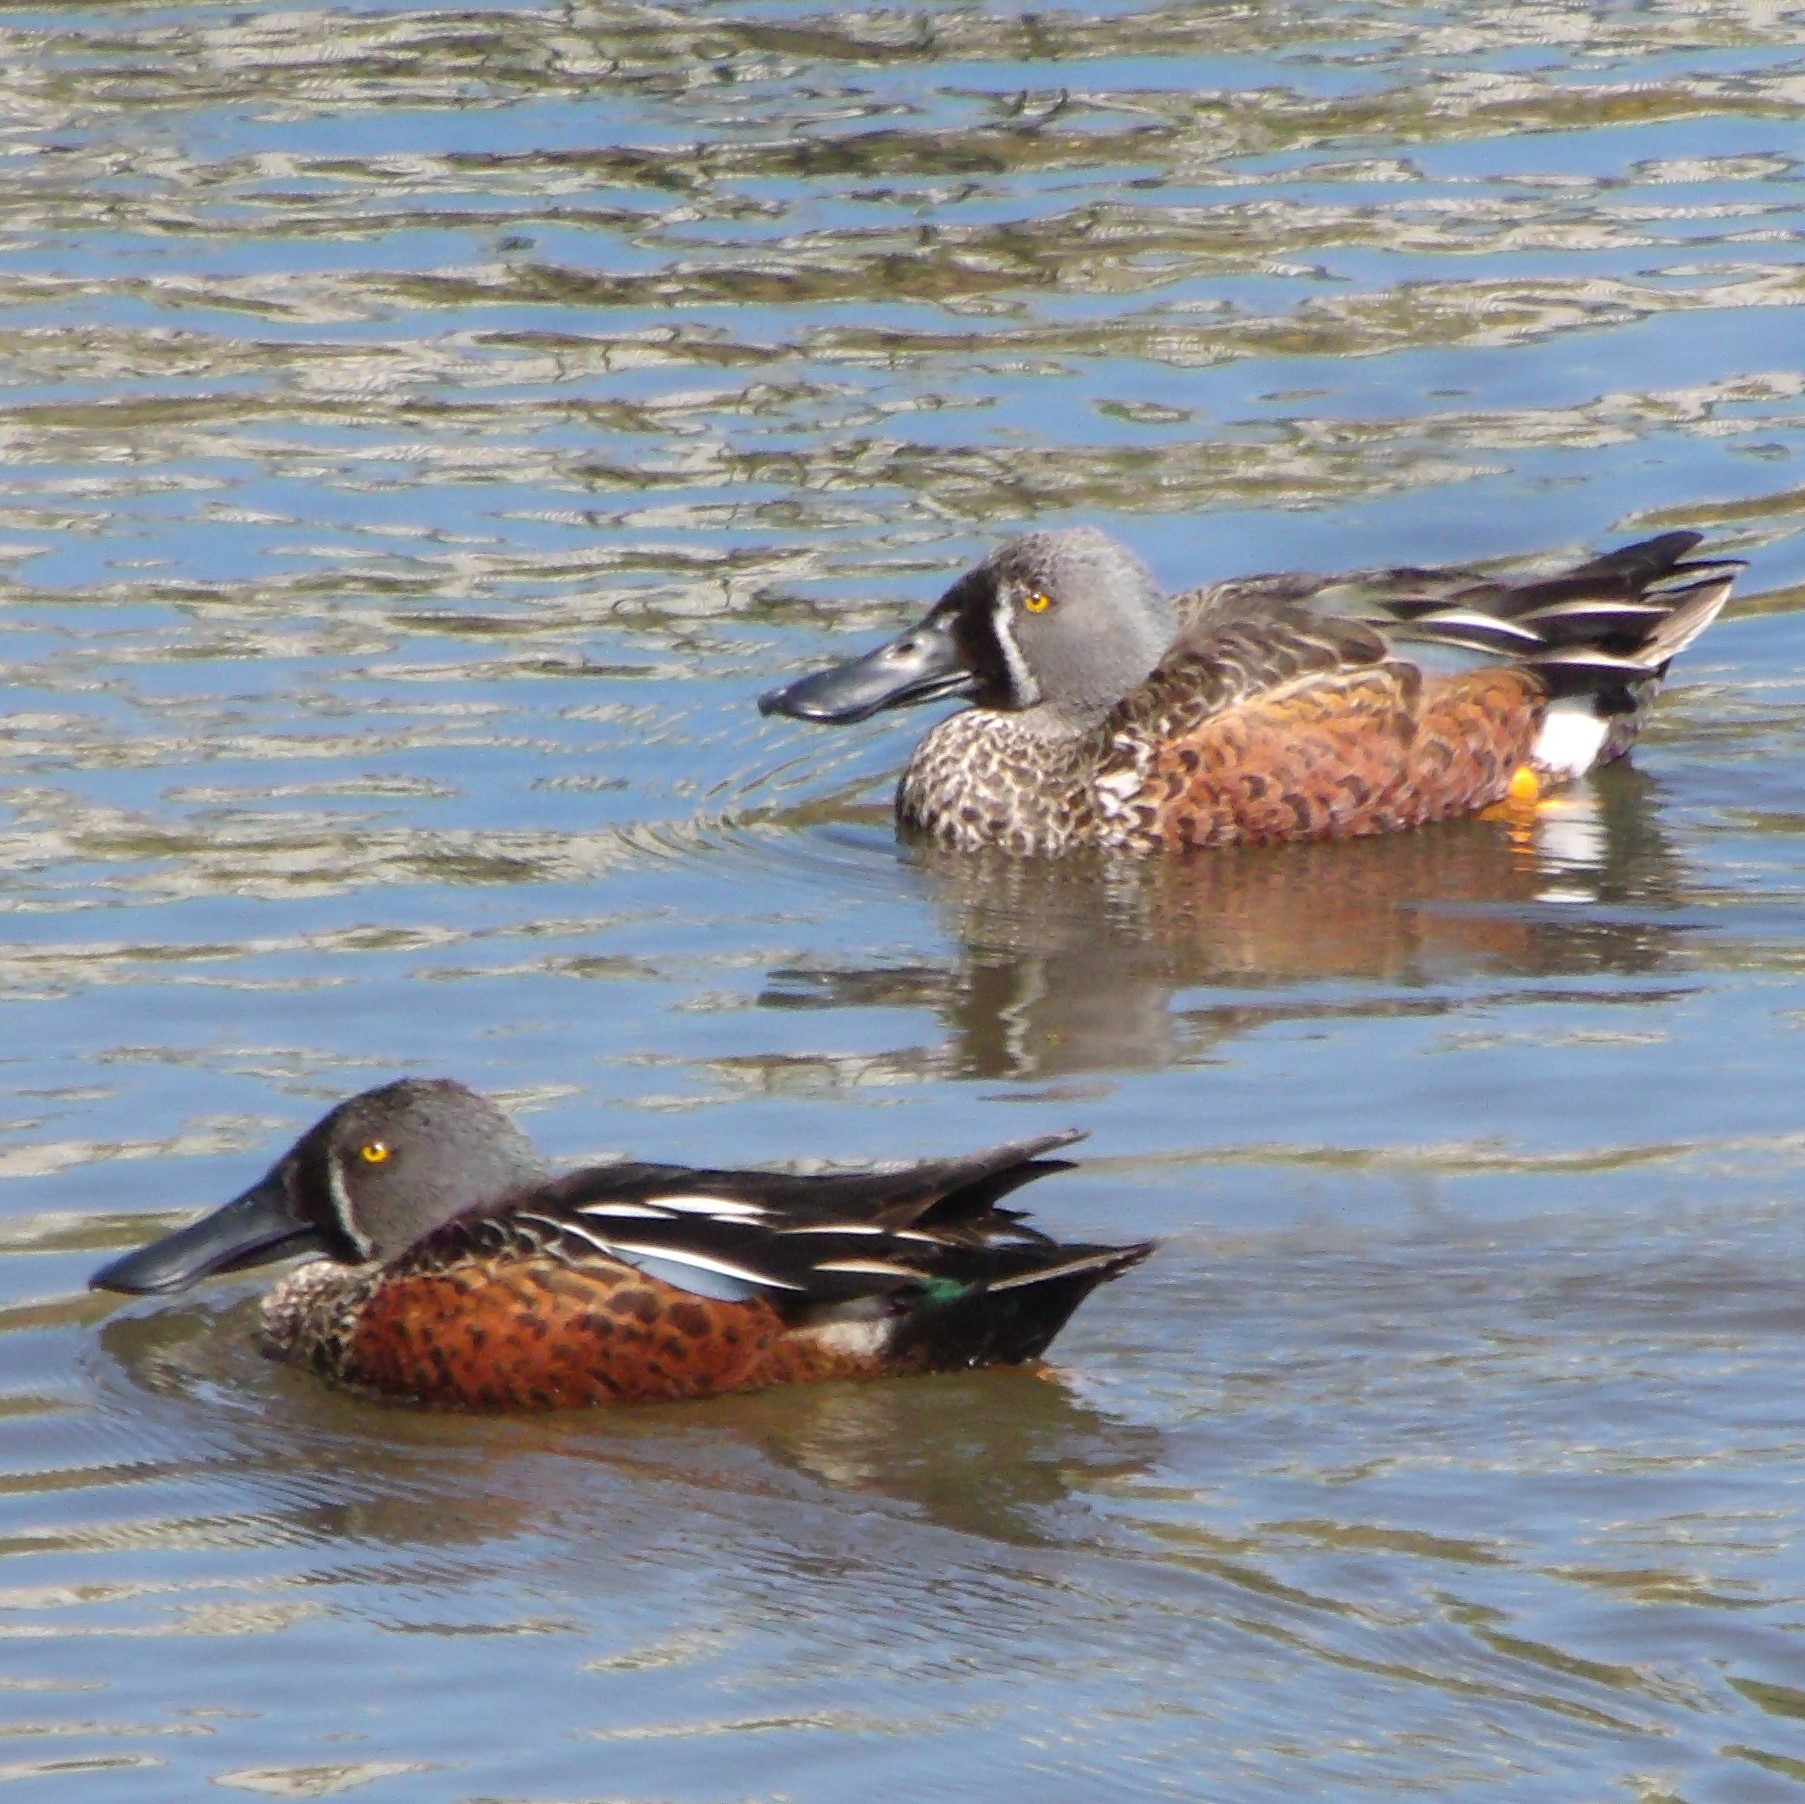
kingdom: Animalia
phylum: Chordata
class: Aves
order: Anseriformes
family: Anatidae
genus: Spatula
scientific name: Spatula rhynchotis
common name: Australian shoveler
